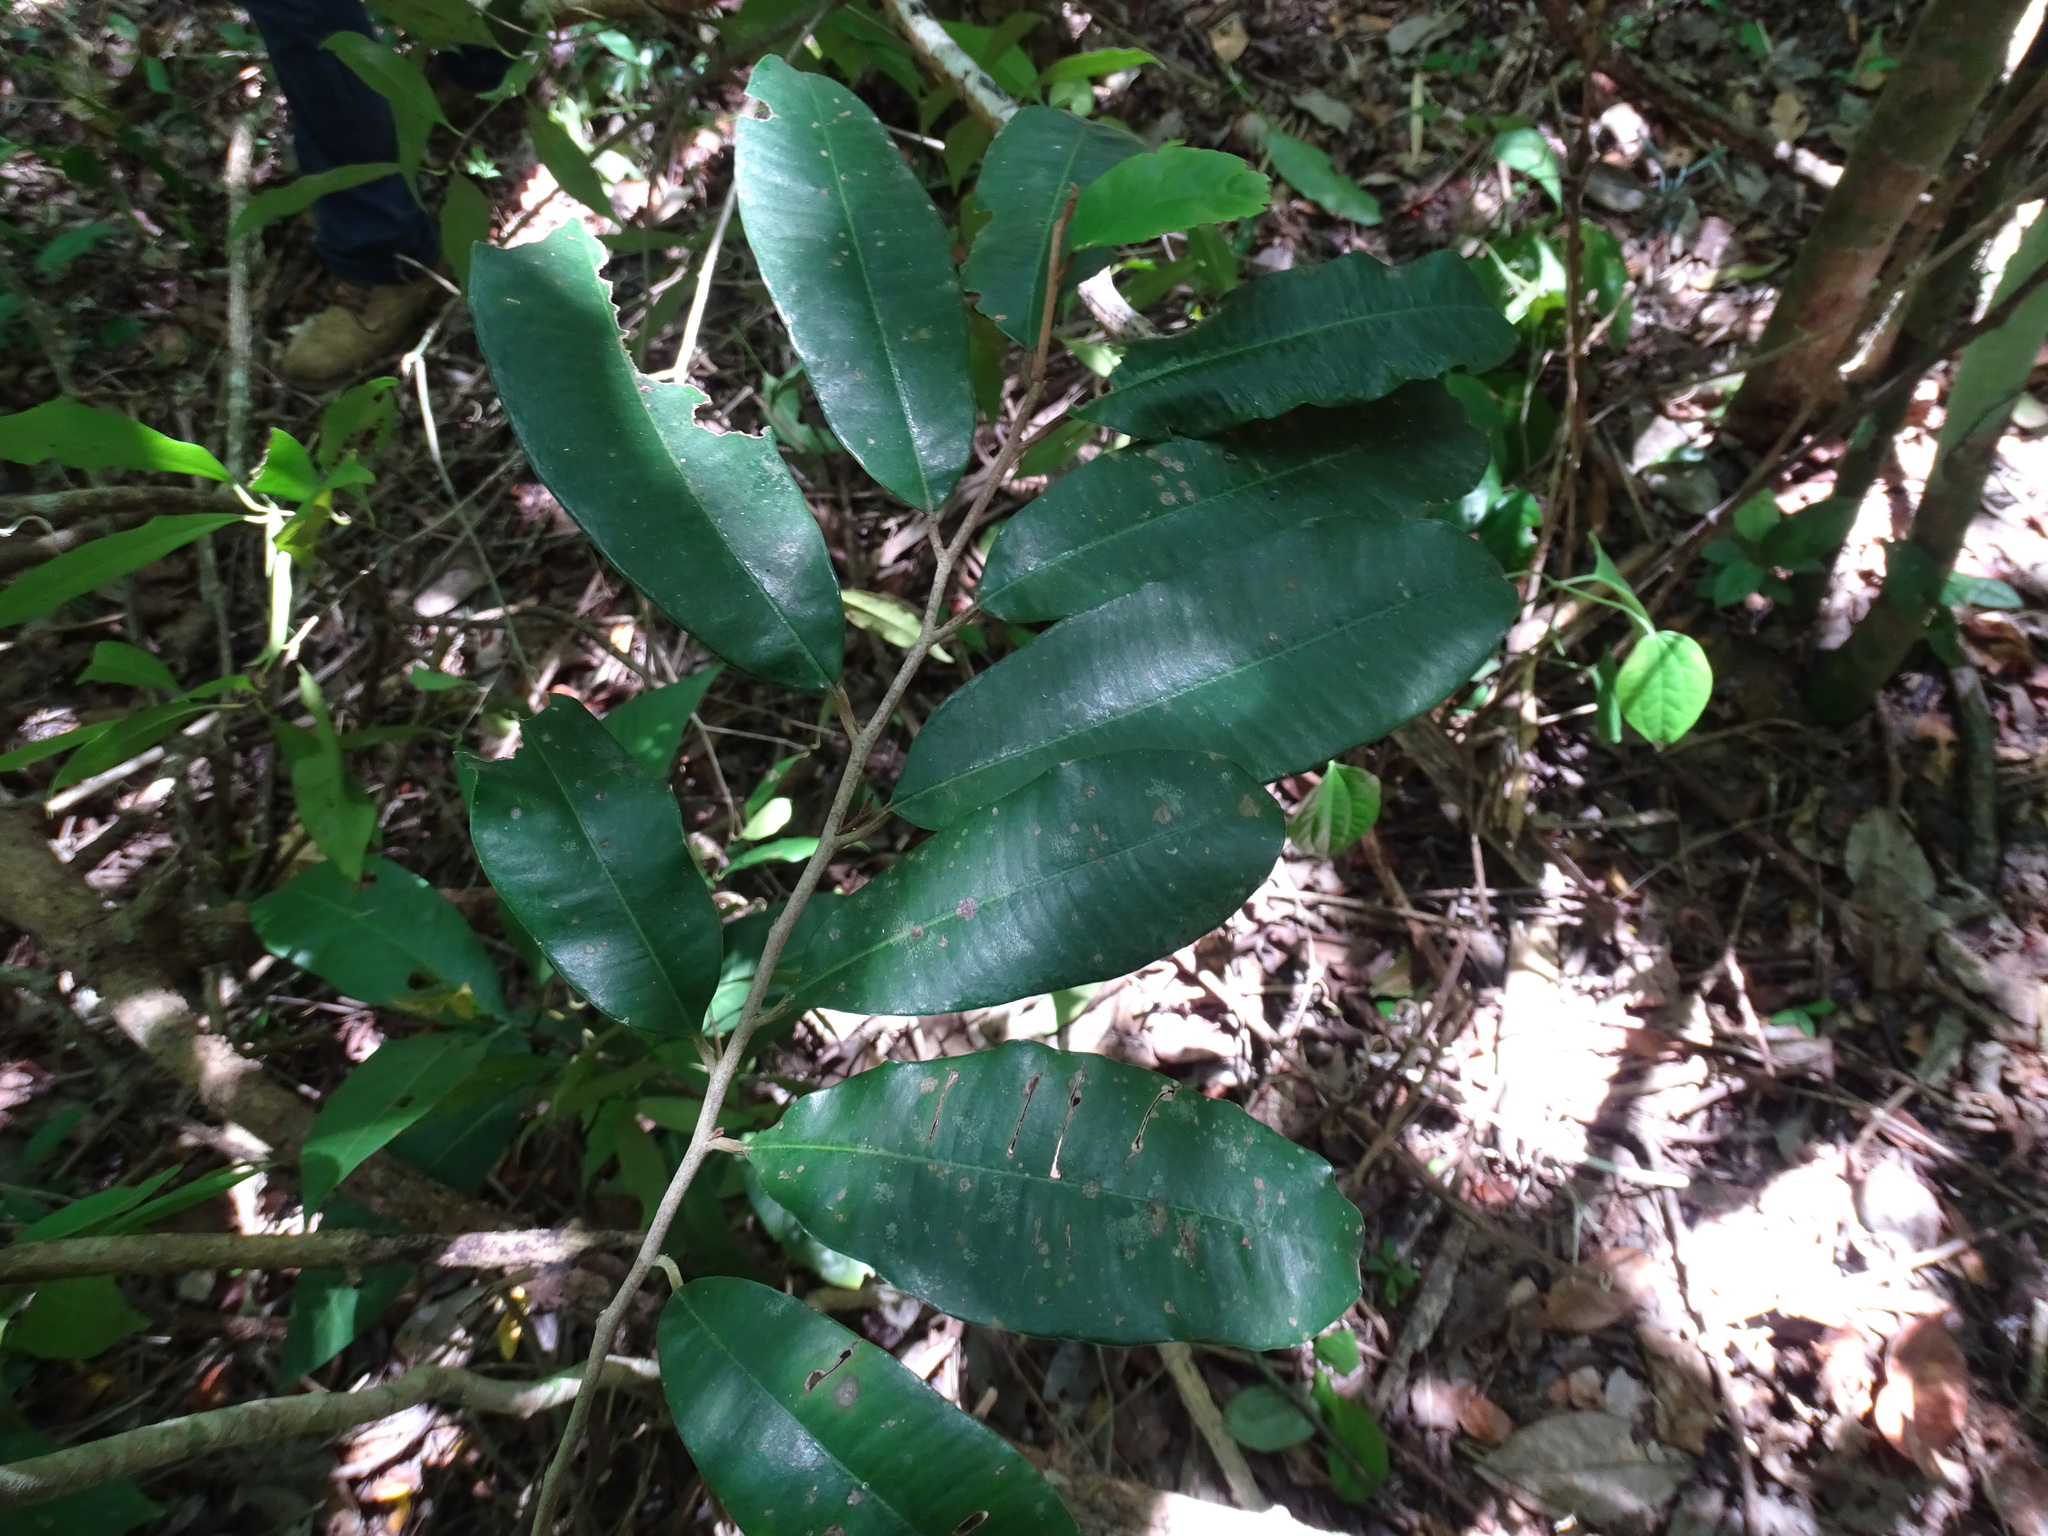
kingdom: Plantae
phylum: Tracheophyta
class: Magnoliopsida
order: Ericales
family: Sapotaceae
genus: Chrysophyllum
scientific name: Chrysophyllum mexicanum
